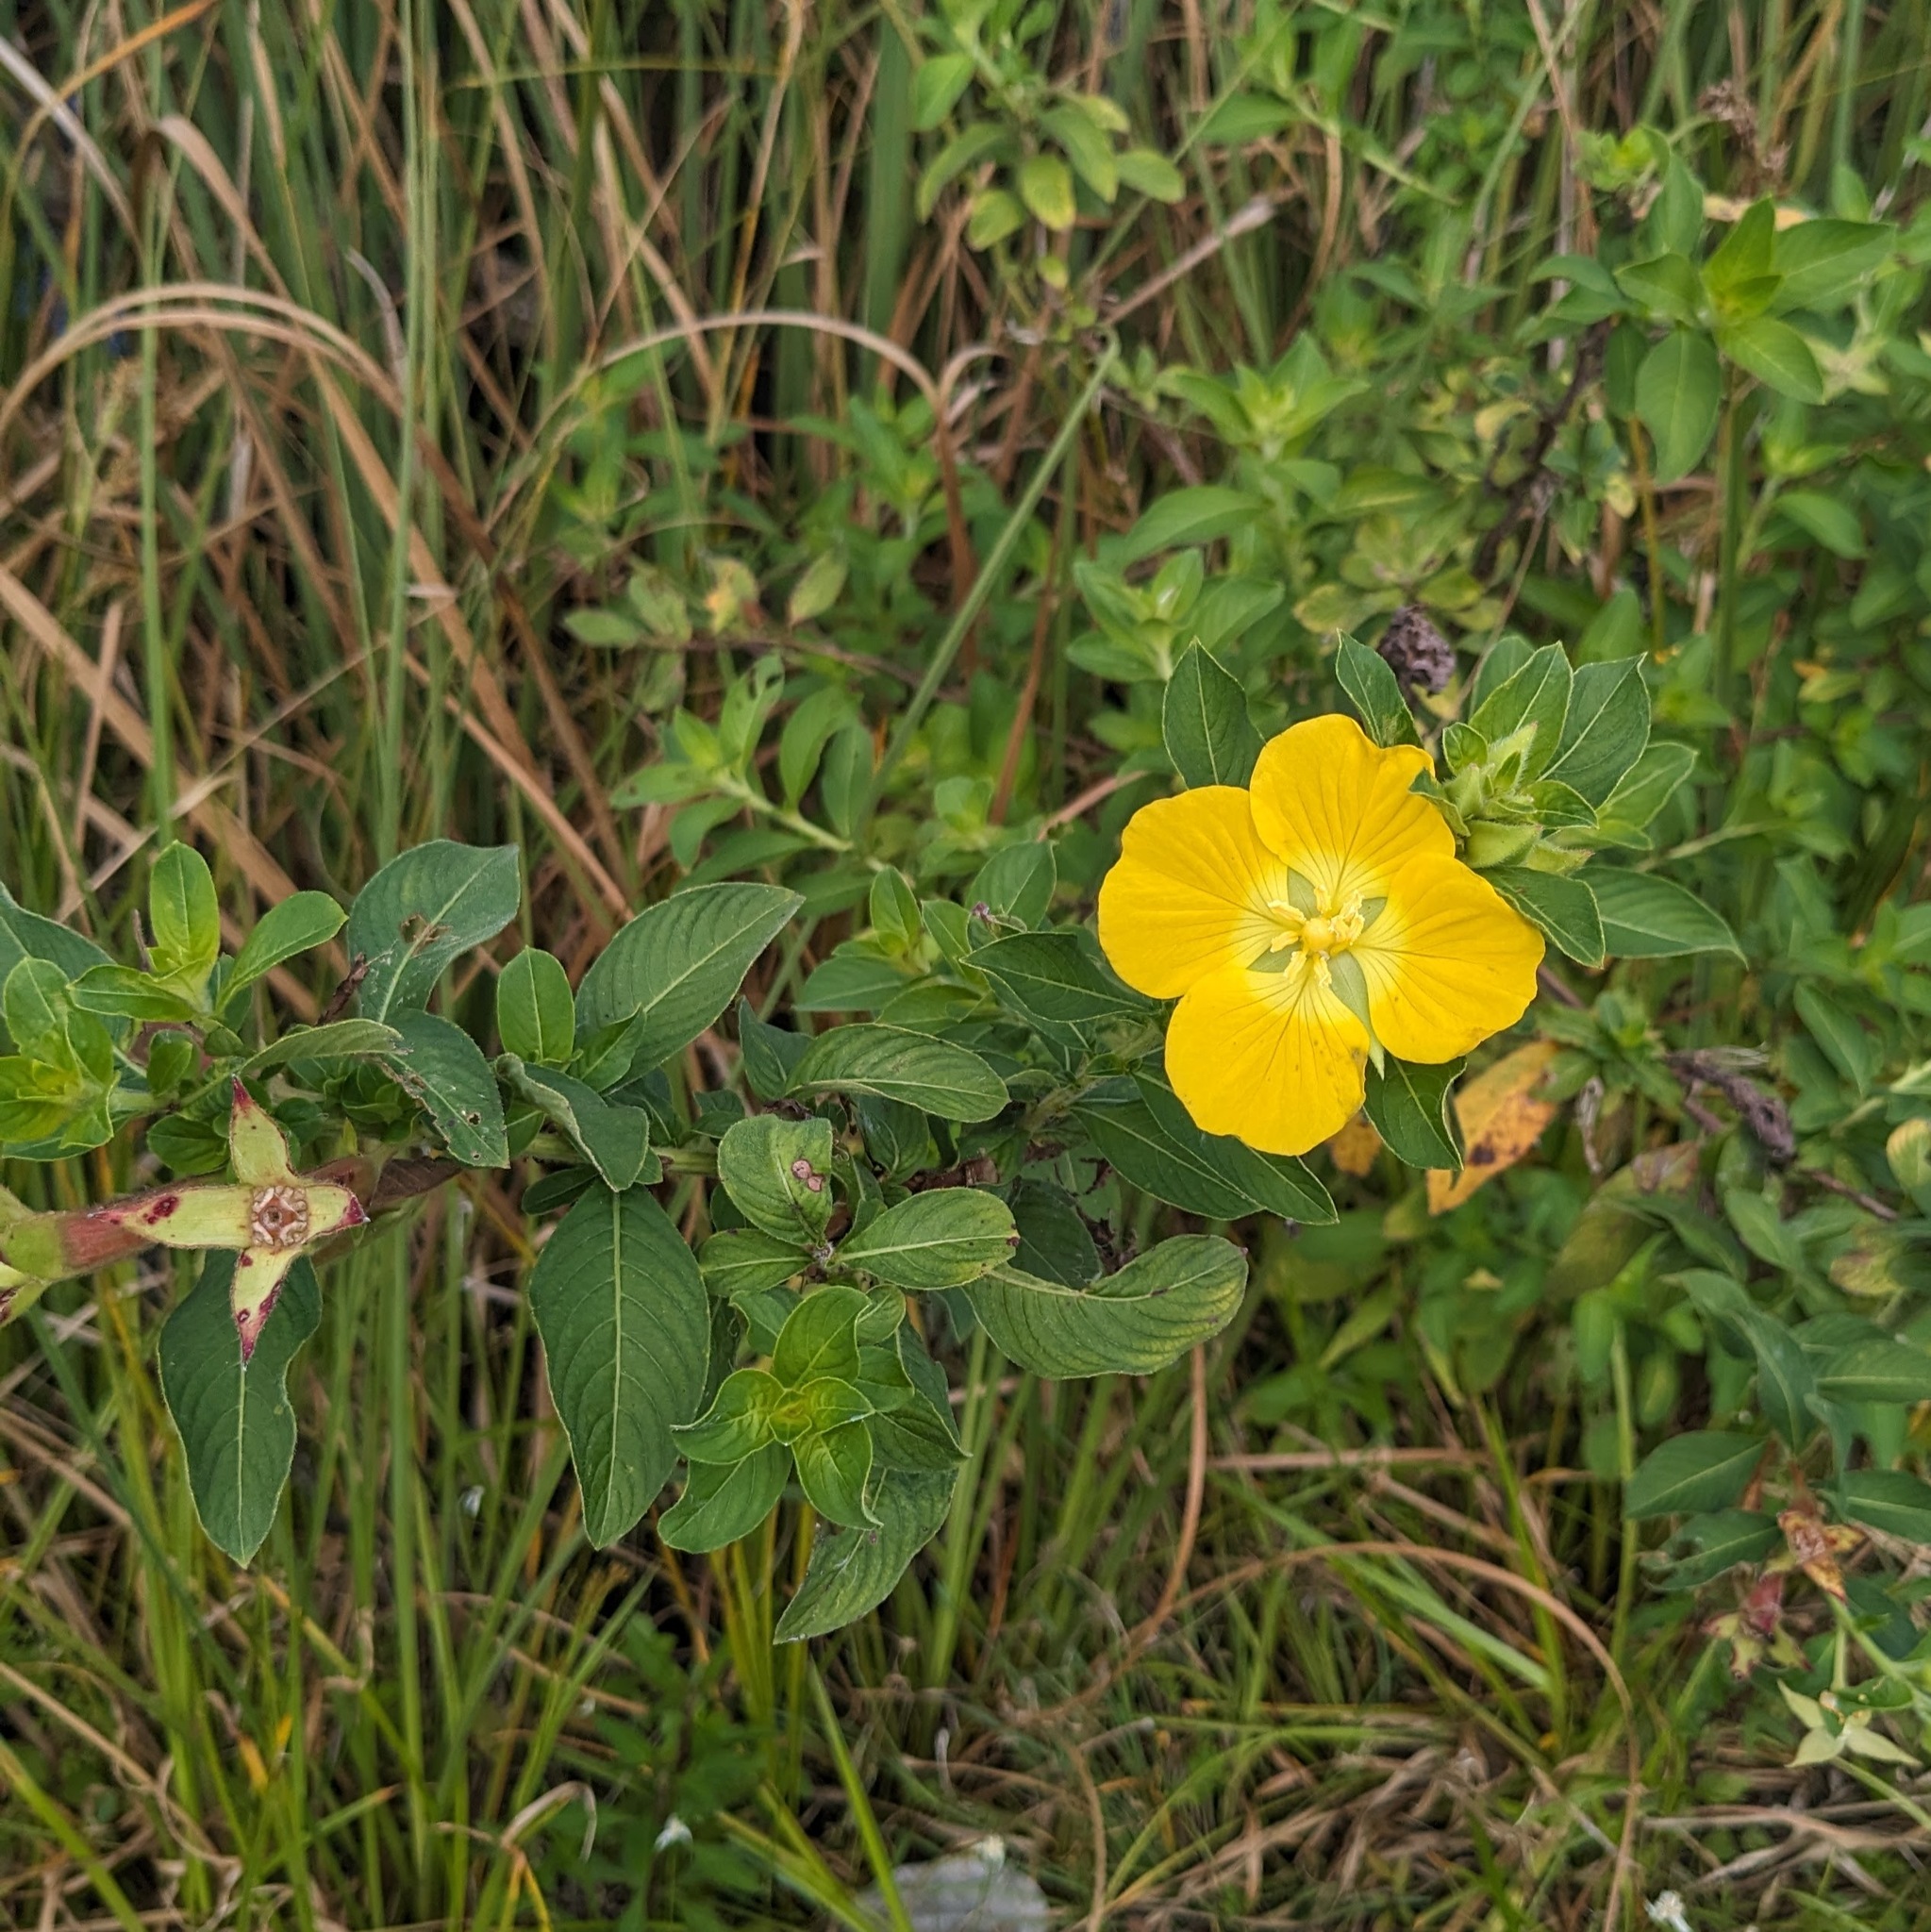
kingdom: Plantae
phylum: Tracheophyta
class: Magnoliopsida
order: Myrtales
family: Onagraceae
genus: Ludwigia
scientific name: Ludwigia peruviana
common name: Peruvian primrose-willow
